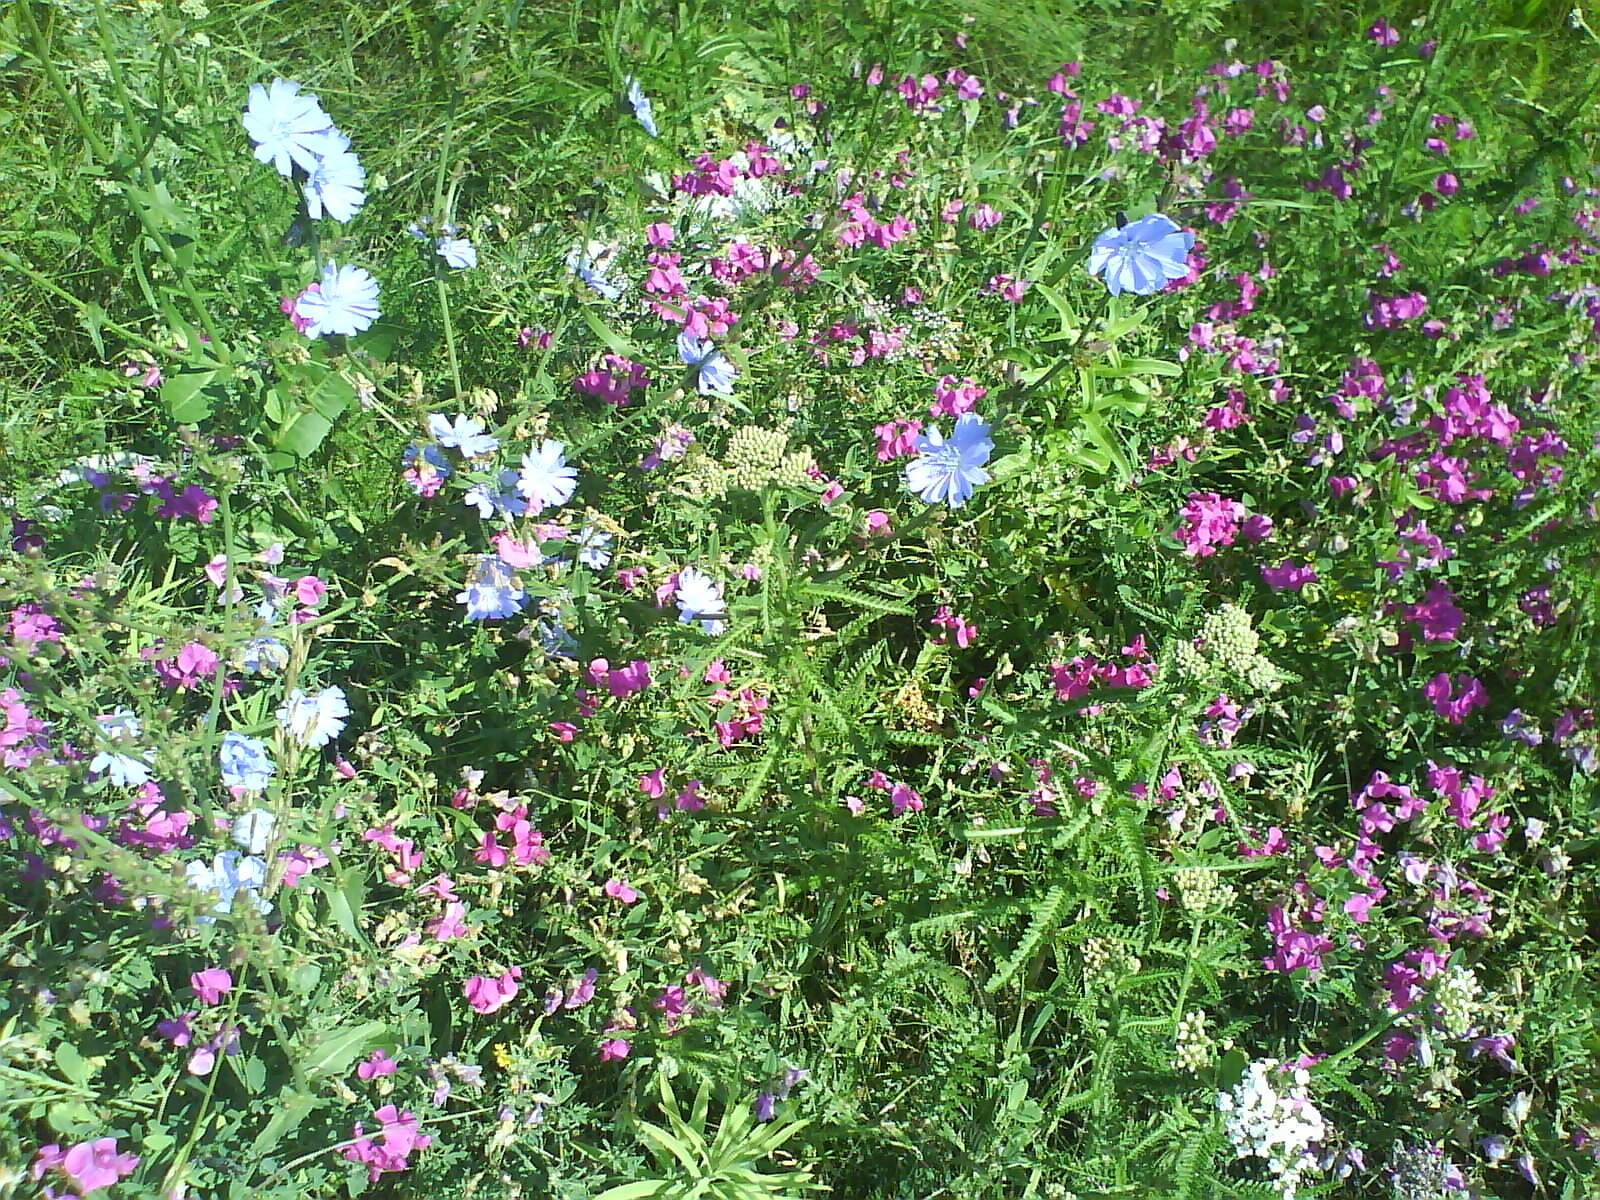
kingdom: Plantae
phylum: Tracheophyta
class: Magnoliopsida
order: Asterales
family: Asteraceae
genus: Cichorium
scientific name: Cichorium intybus
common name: Chicory
